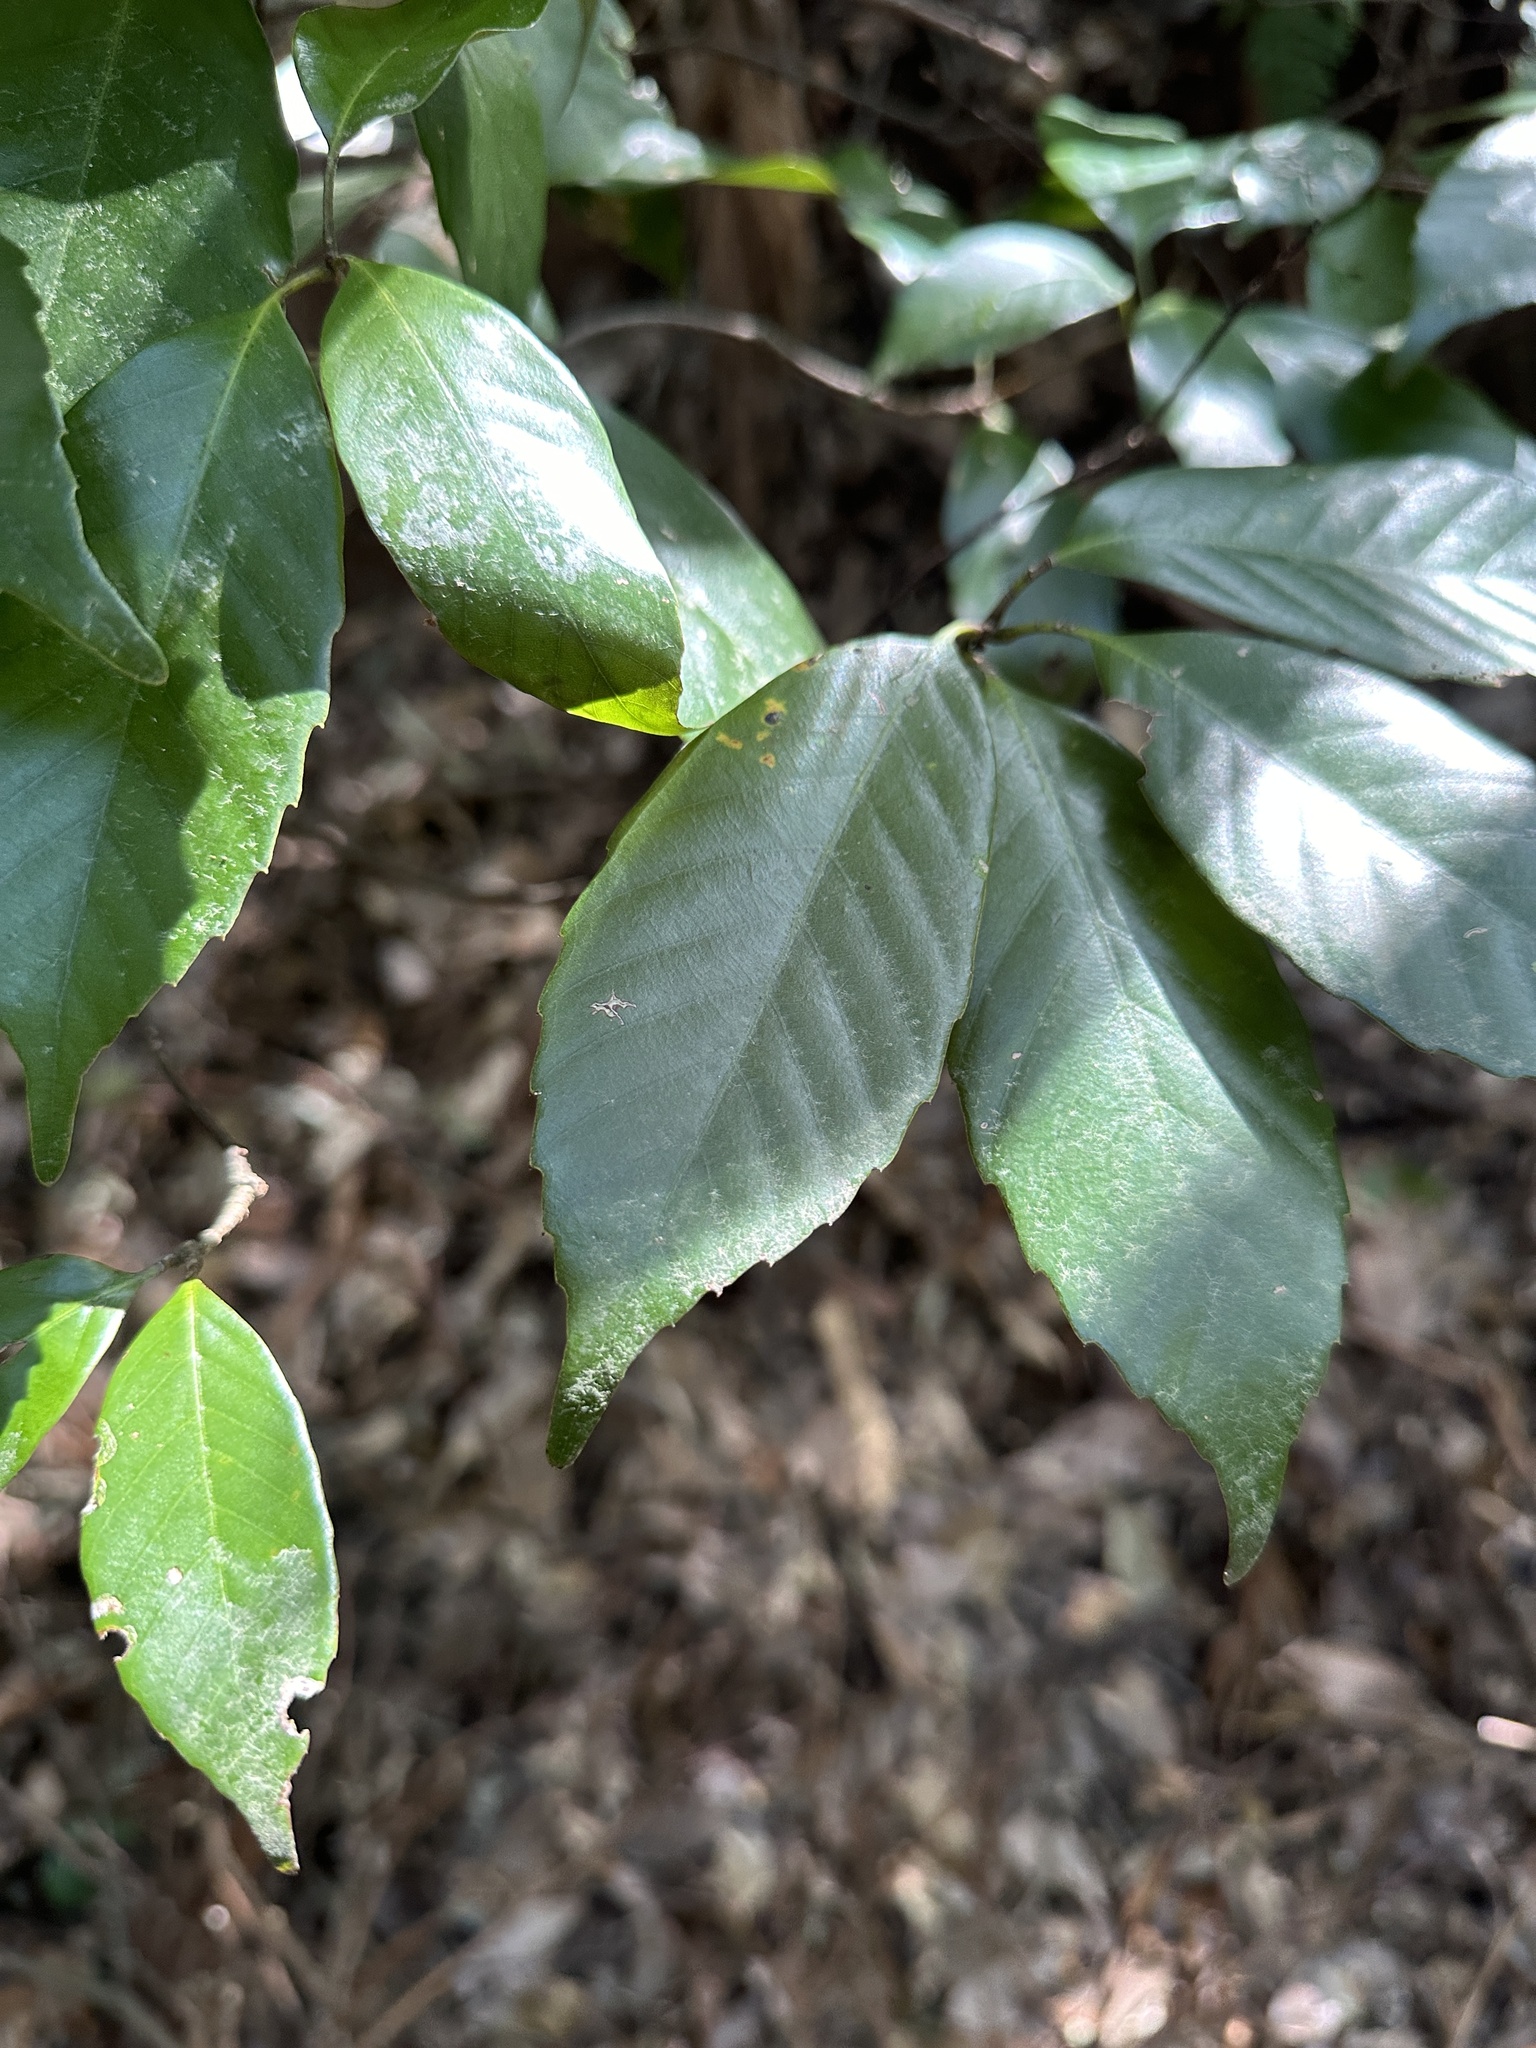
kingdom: Plantae
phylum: Tracheophyta
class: Magnoliopsida
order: Fagales
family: Fagaceae
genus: Quercus
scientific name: Quercus glauca
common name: Ring-cup oak
